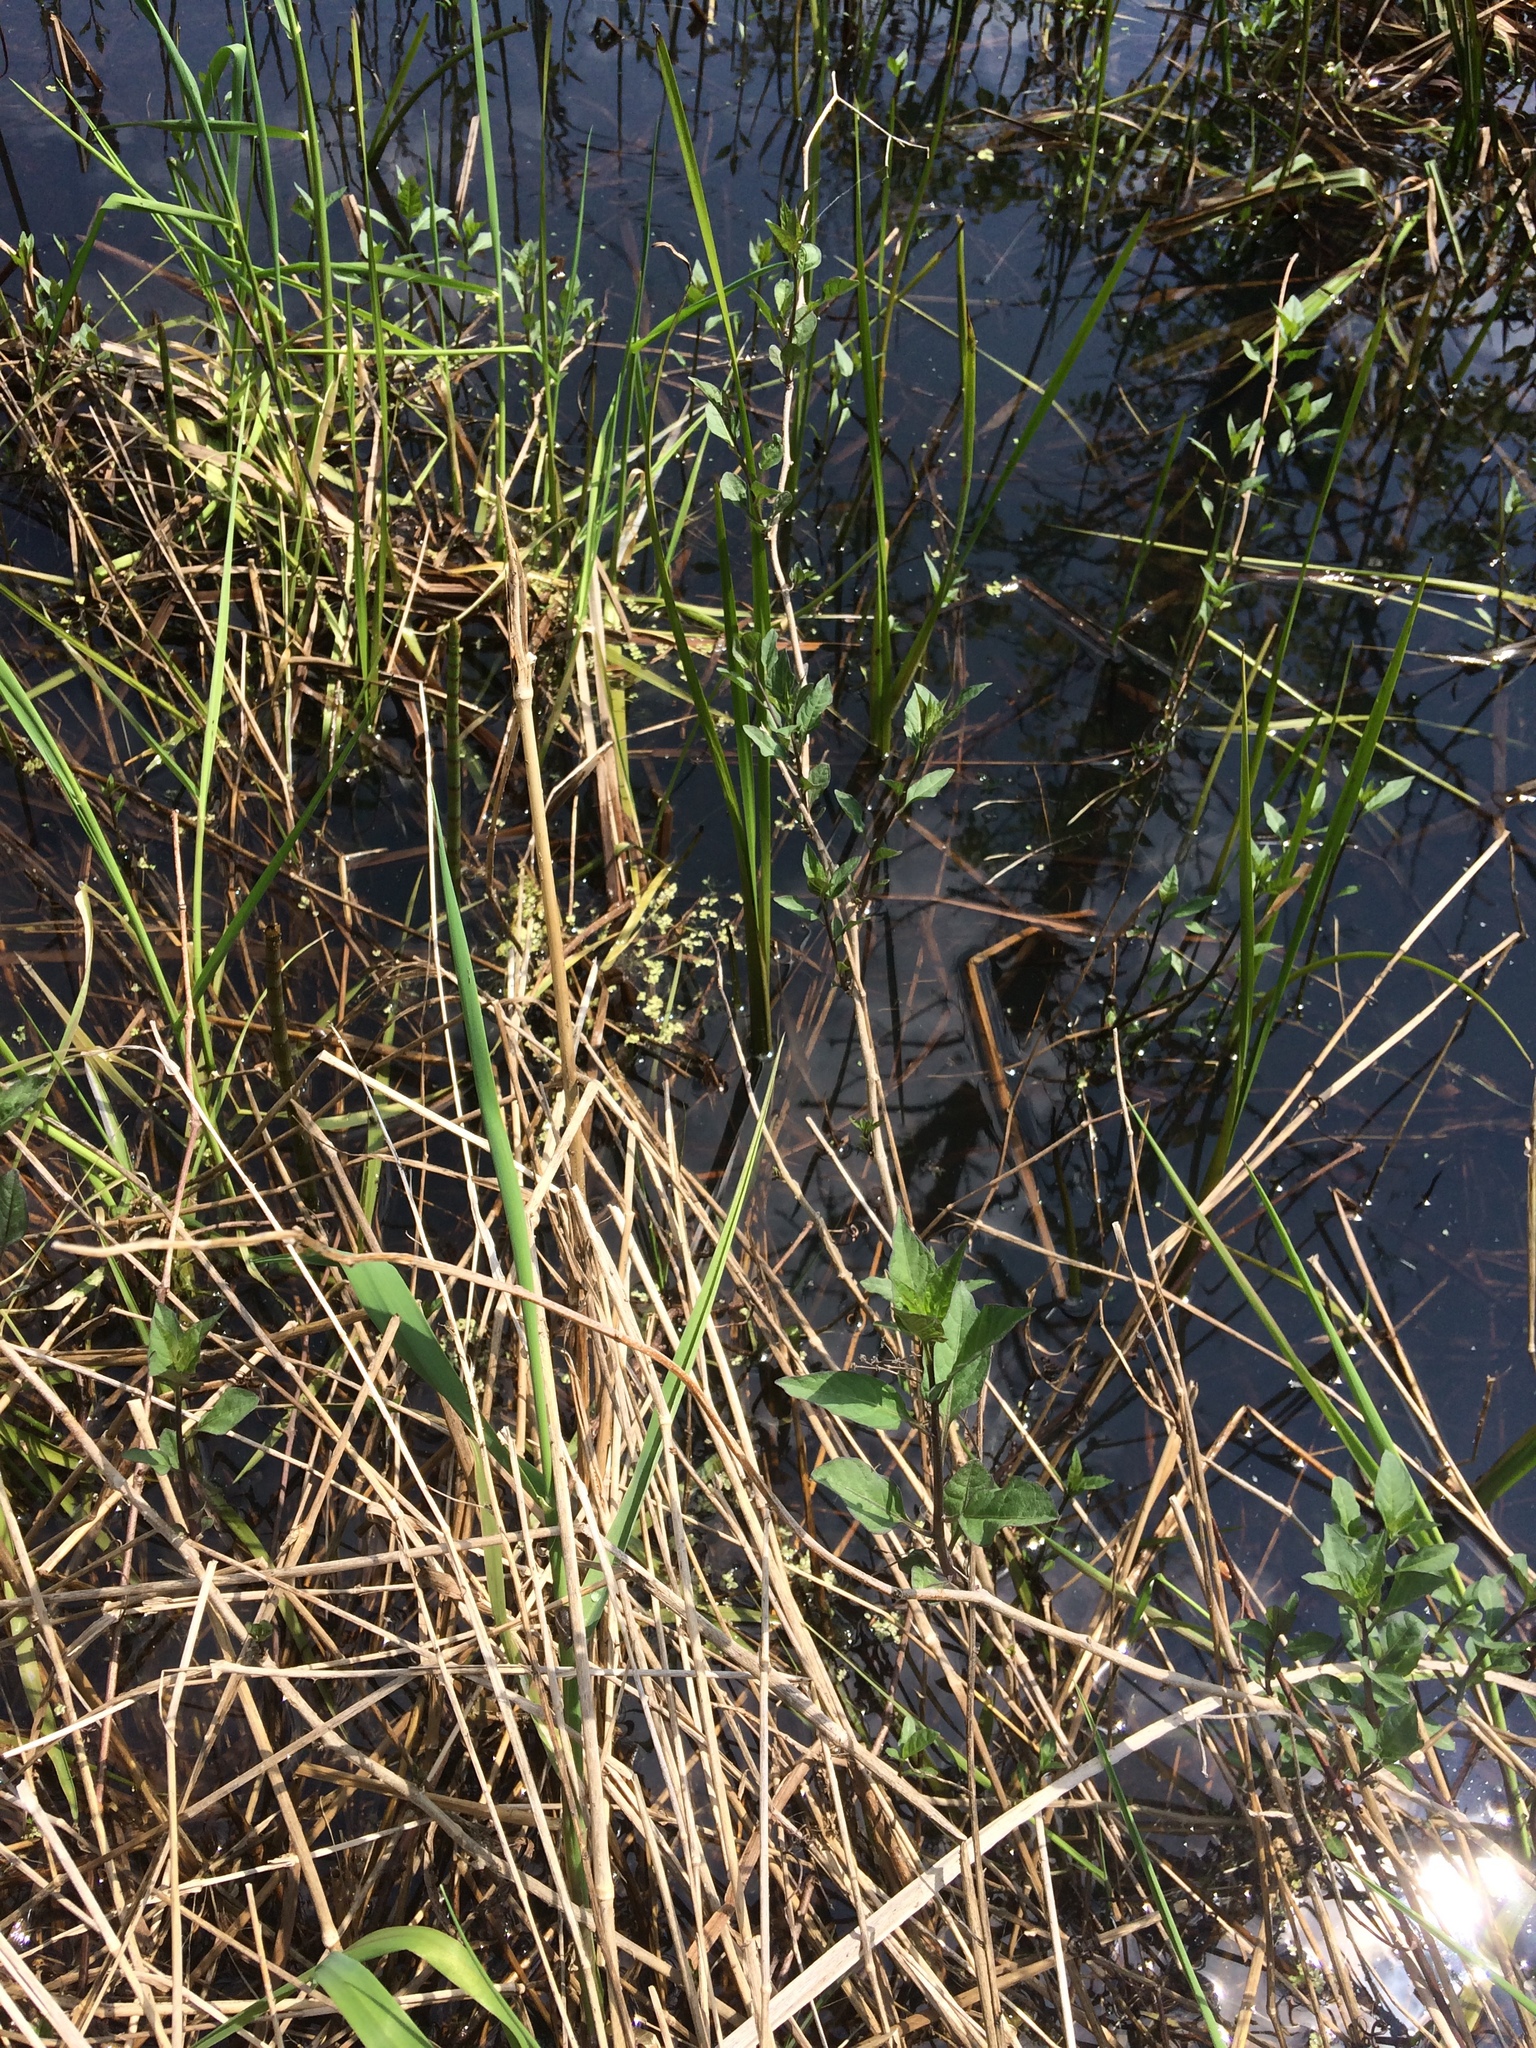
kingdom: Plantae
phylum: Tracheophyta
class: Magnoliopsida
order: Solanales
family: Solanaceae
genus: Solanum
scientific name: Solanum dulcamara
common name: Climbing nightshade
